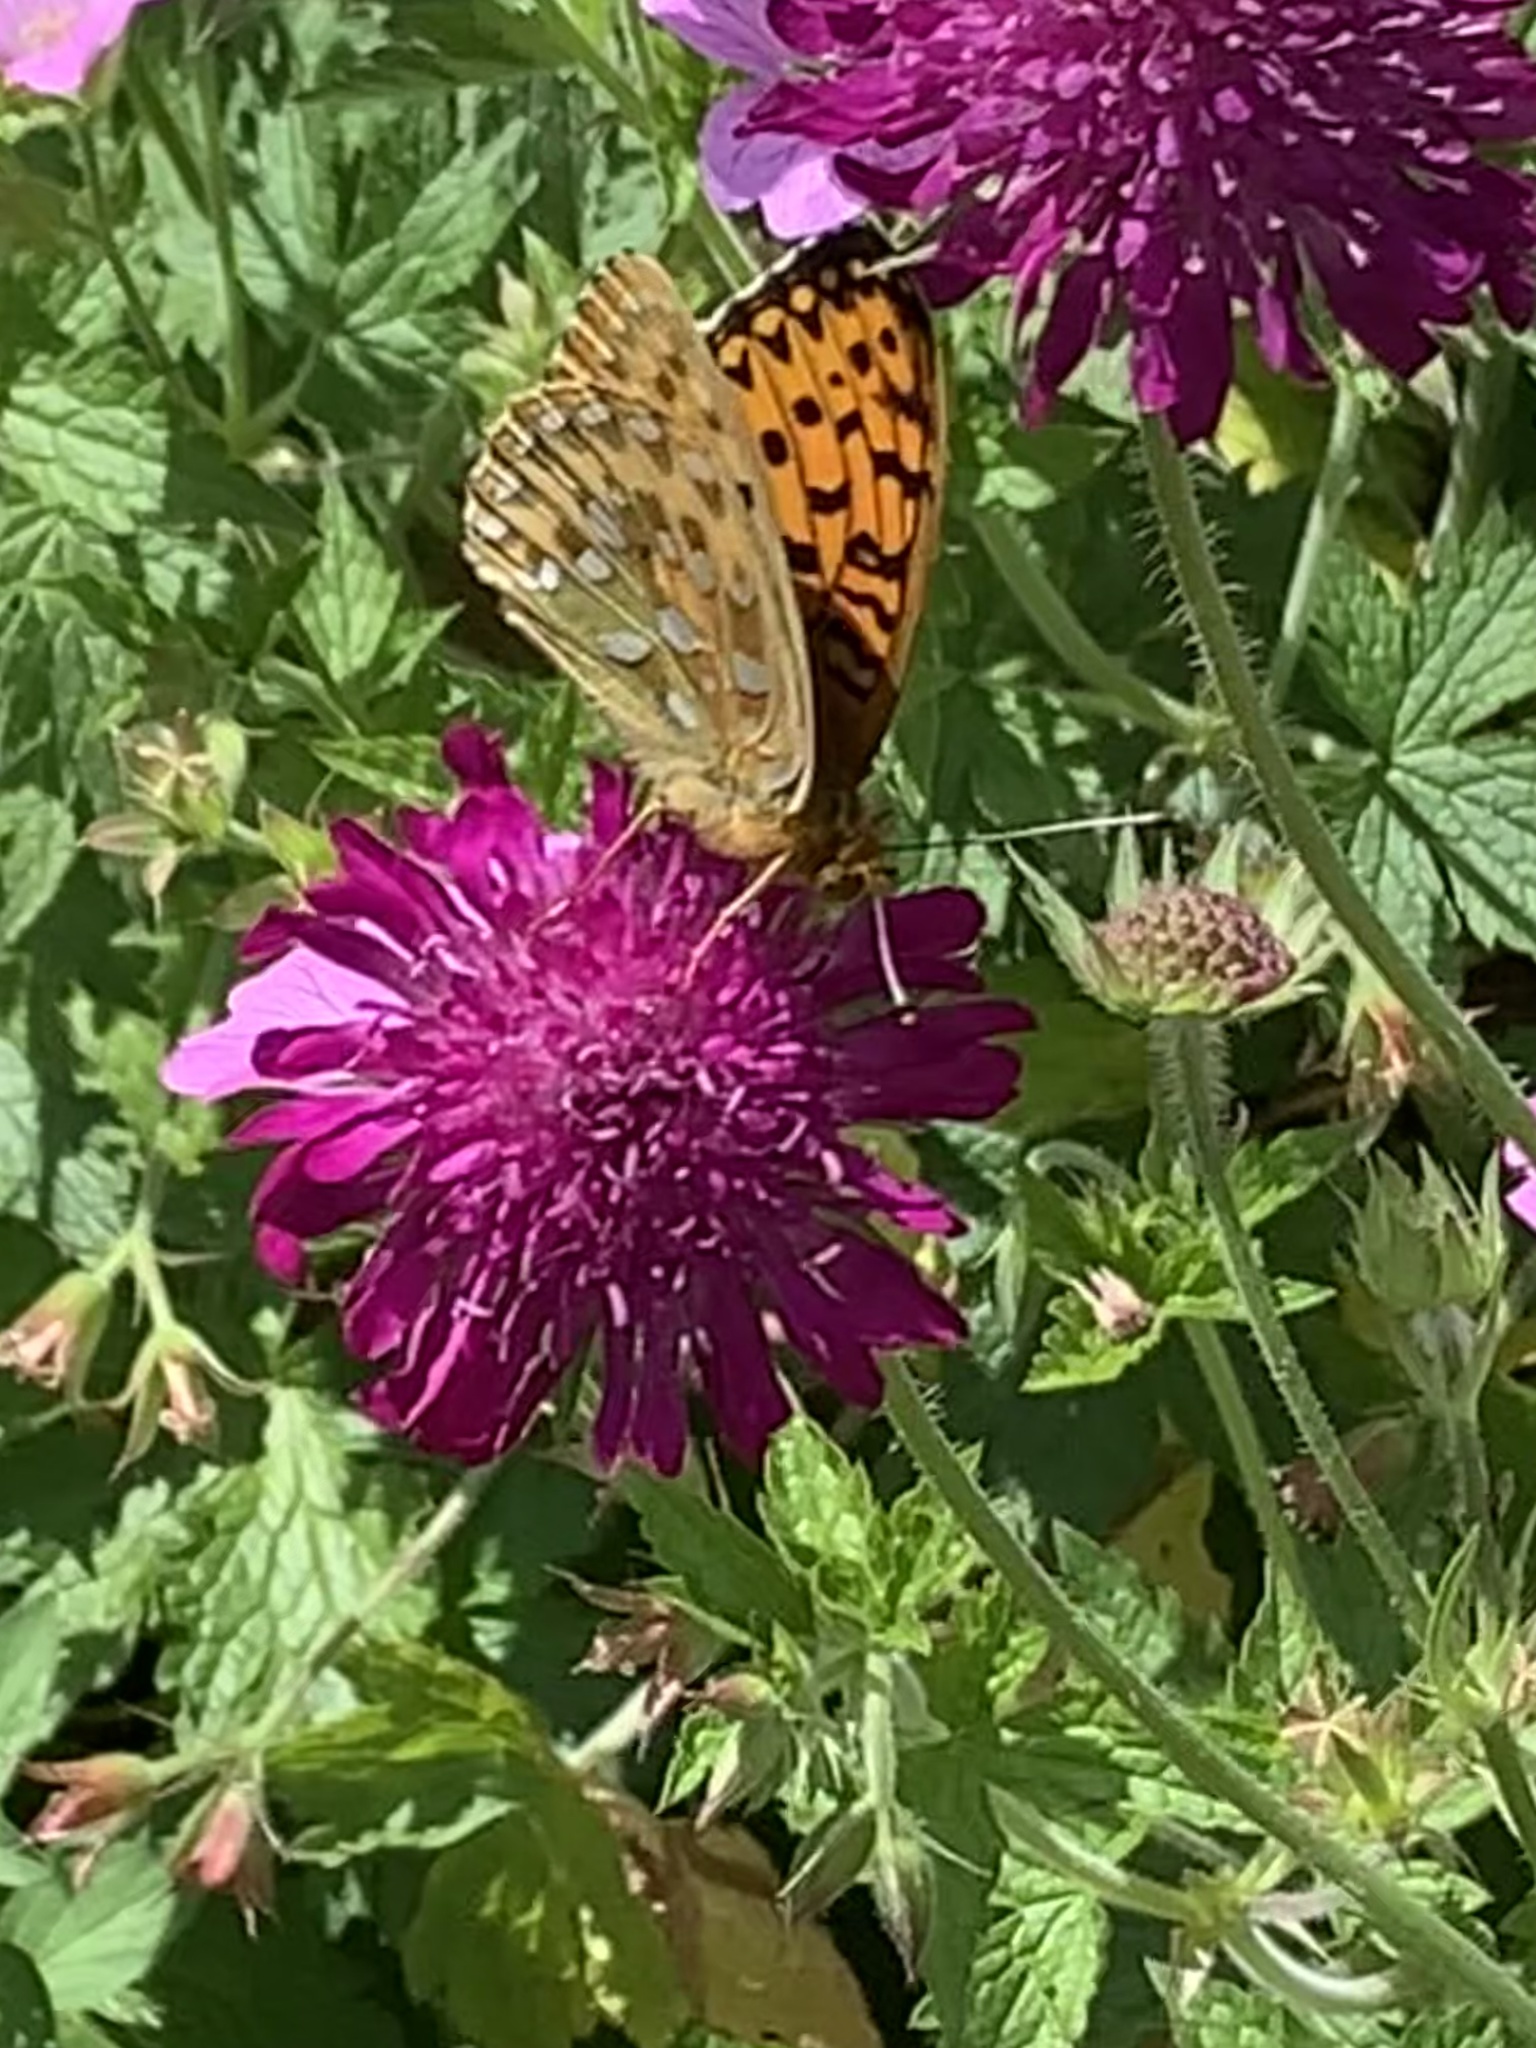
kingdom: Animalia
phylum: Arthropoda
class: Insecta
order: Lepidoptera
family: Nymphalidae
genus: Speyeria
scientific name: Speyeria aglaja
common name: Dark green fritillary
